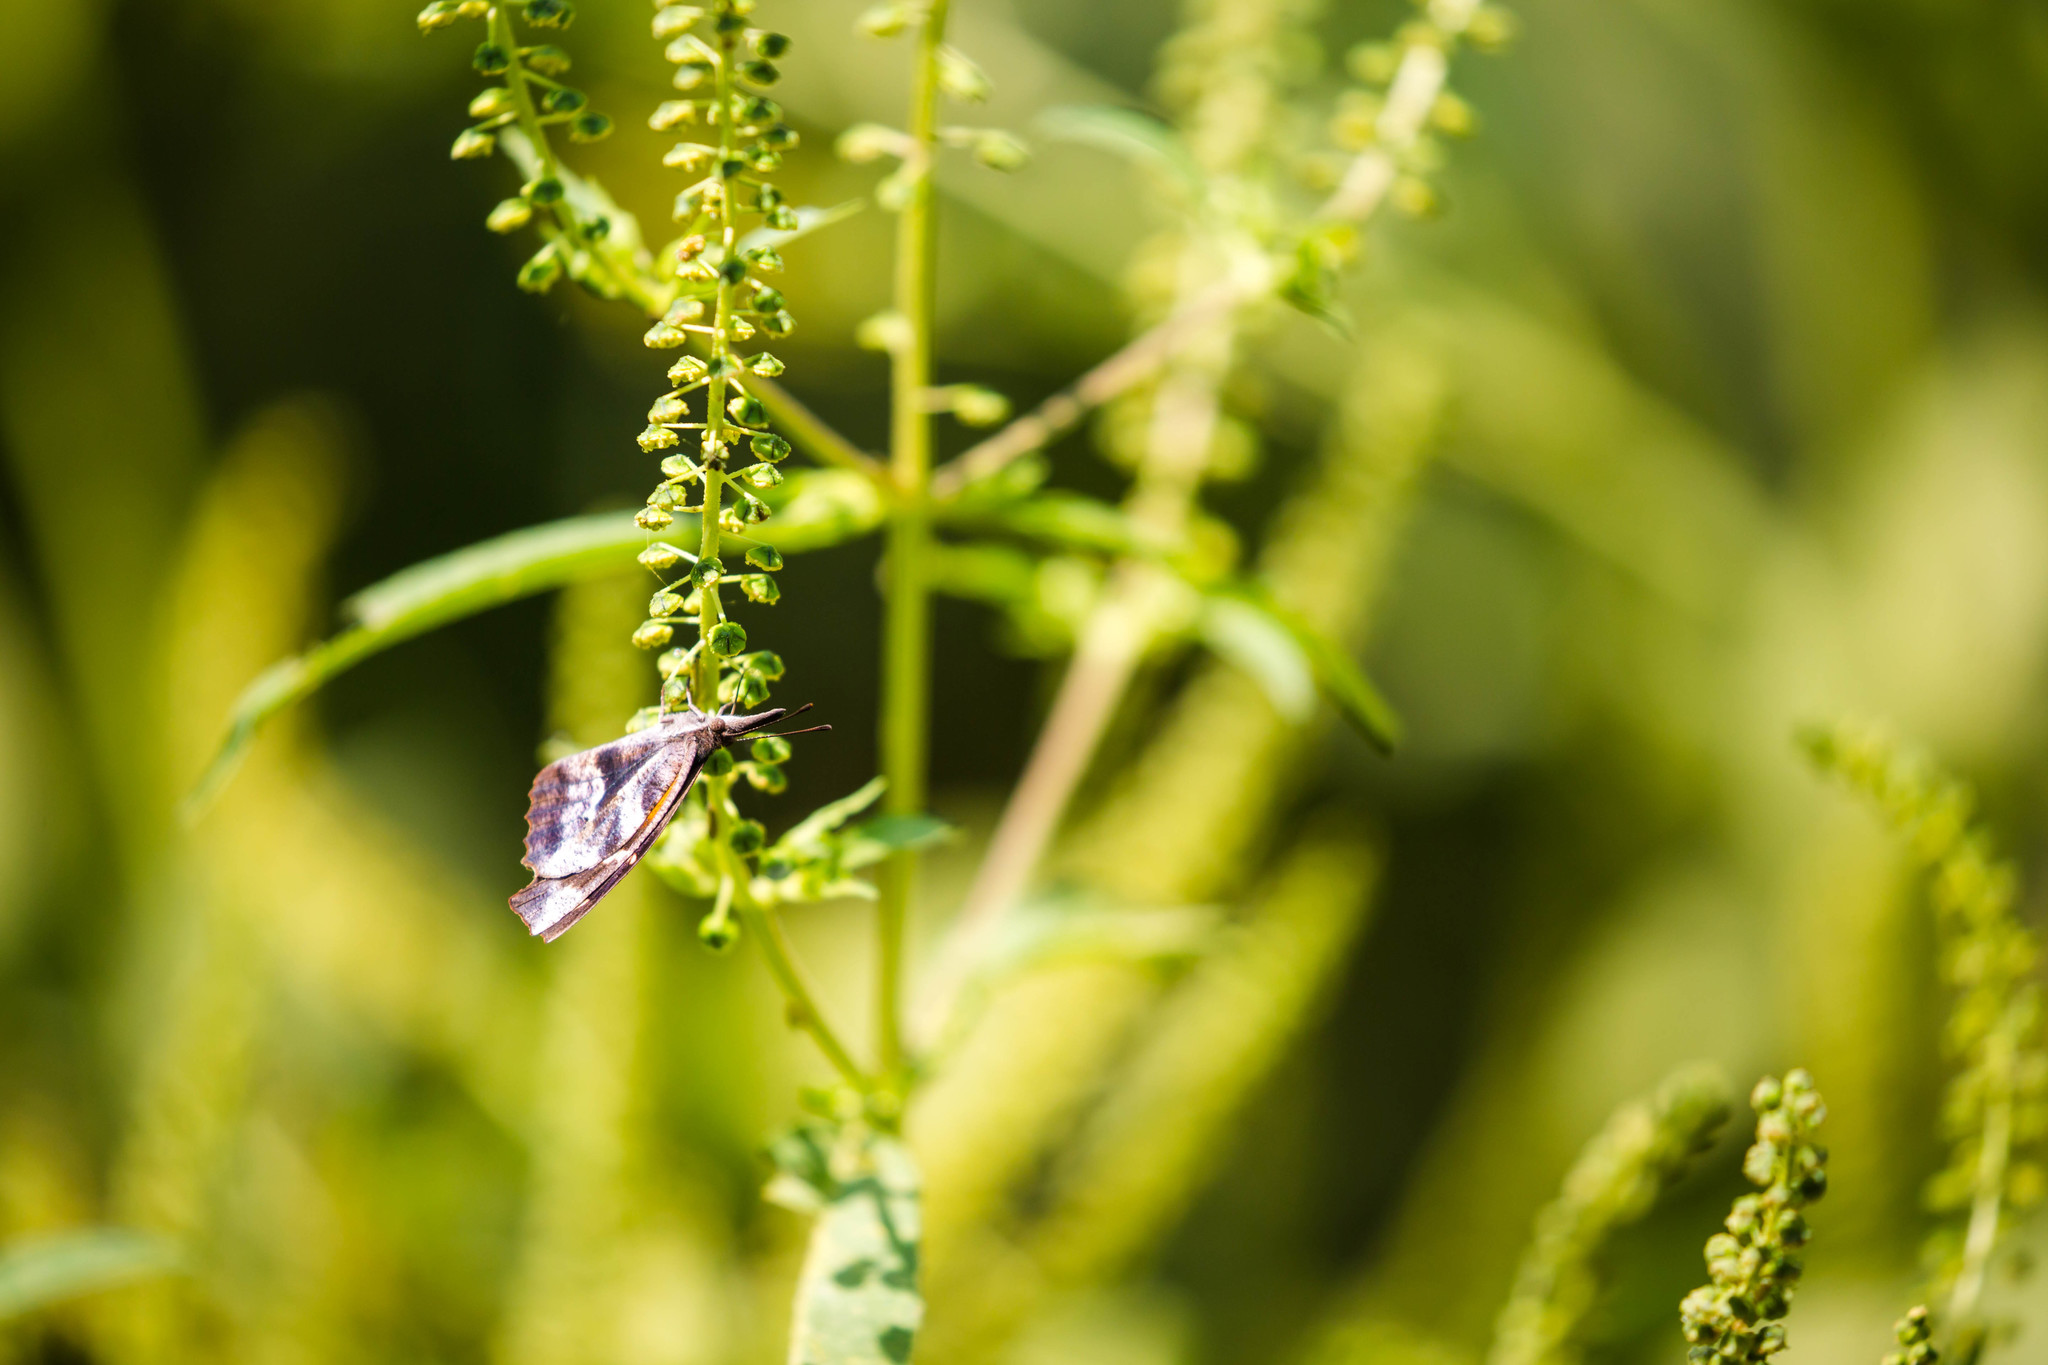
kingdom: Animalia
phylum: Arthropoda
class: Insecta
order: Lepidoptera
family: Nymphalidae
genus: Libytheana
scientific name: Libytheana carinenta
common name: American snout
